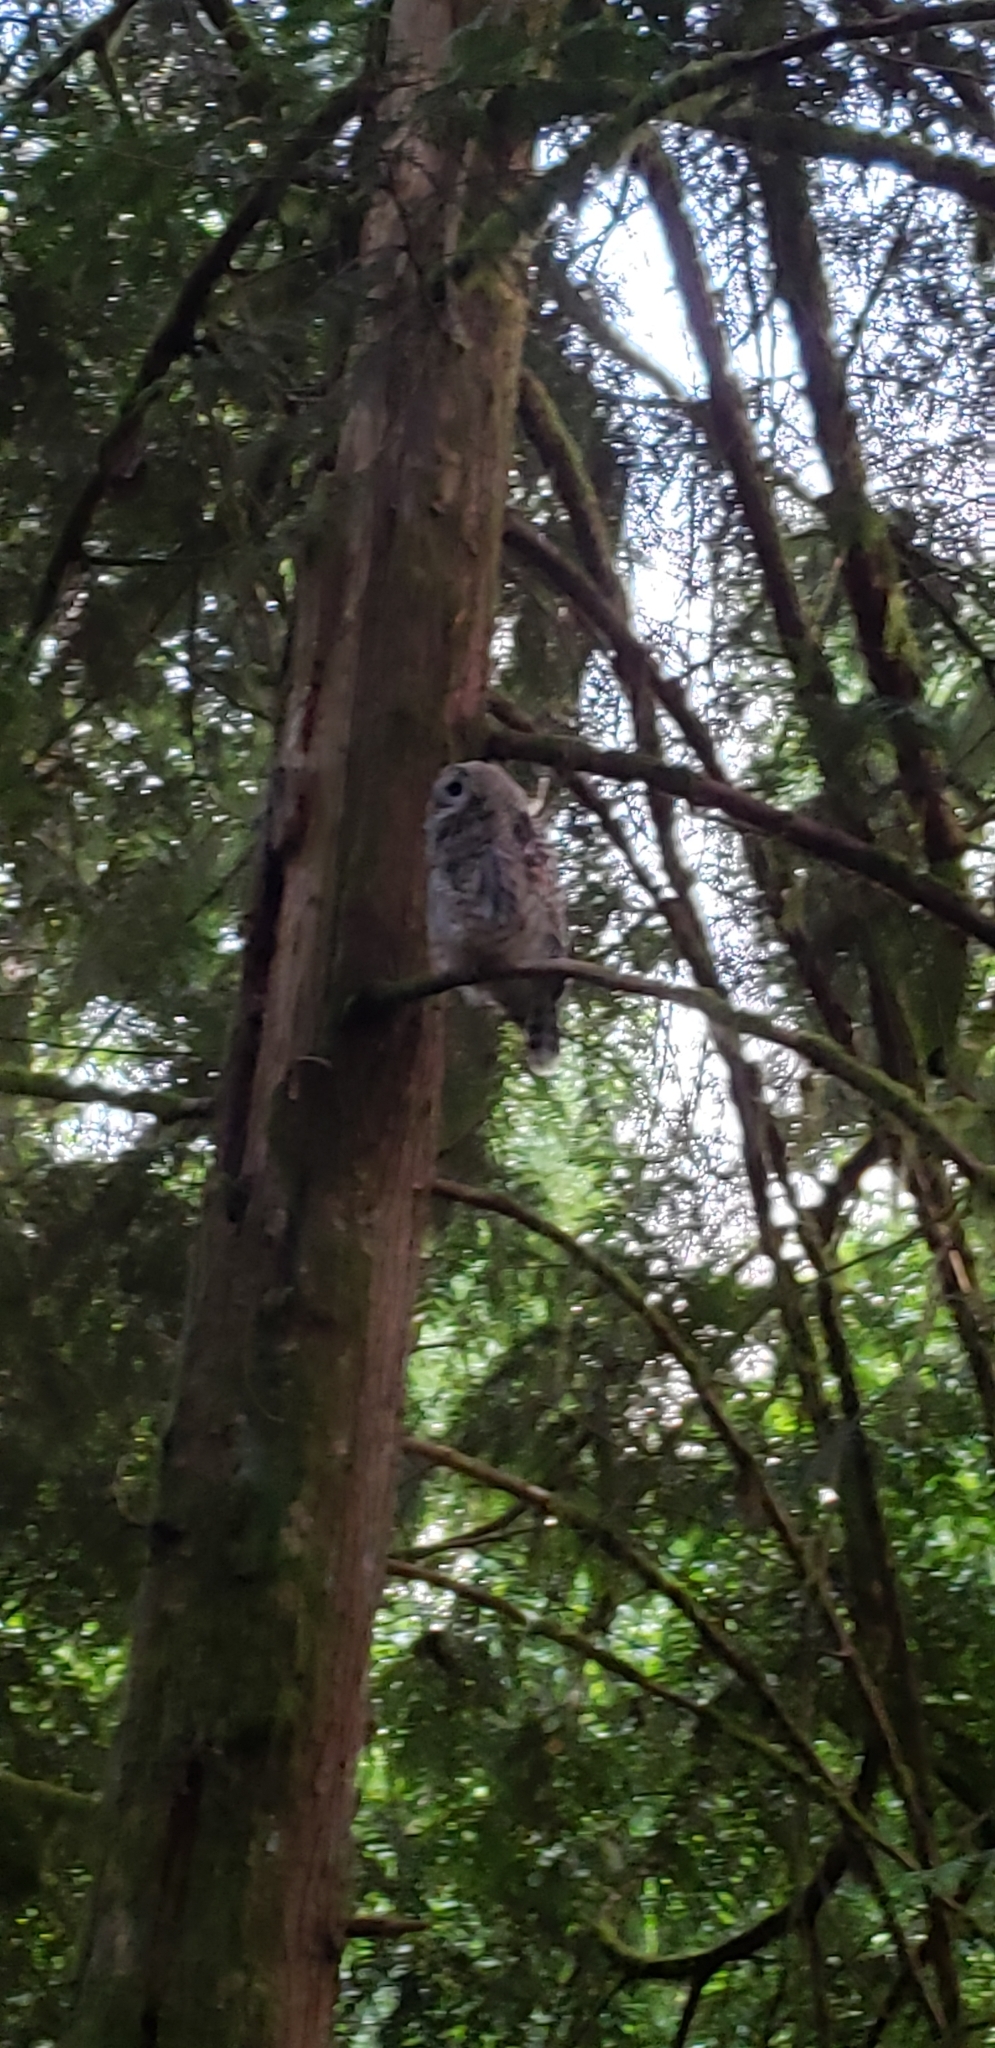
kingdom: Animalia
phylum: Chordata
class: Aves
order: Strigiformes
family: Strigidae
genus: Strix
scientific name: Strix varia
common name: Barred owl
